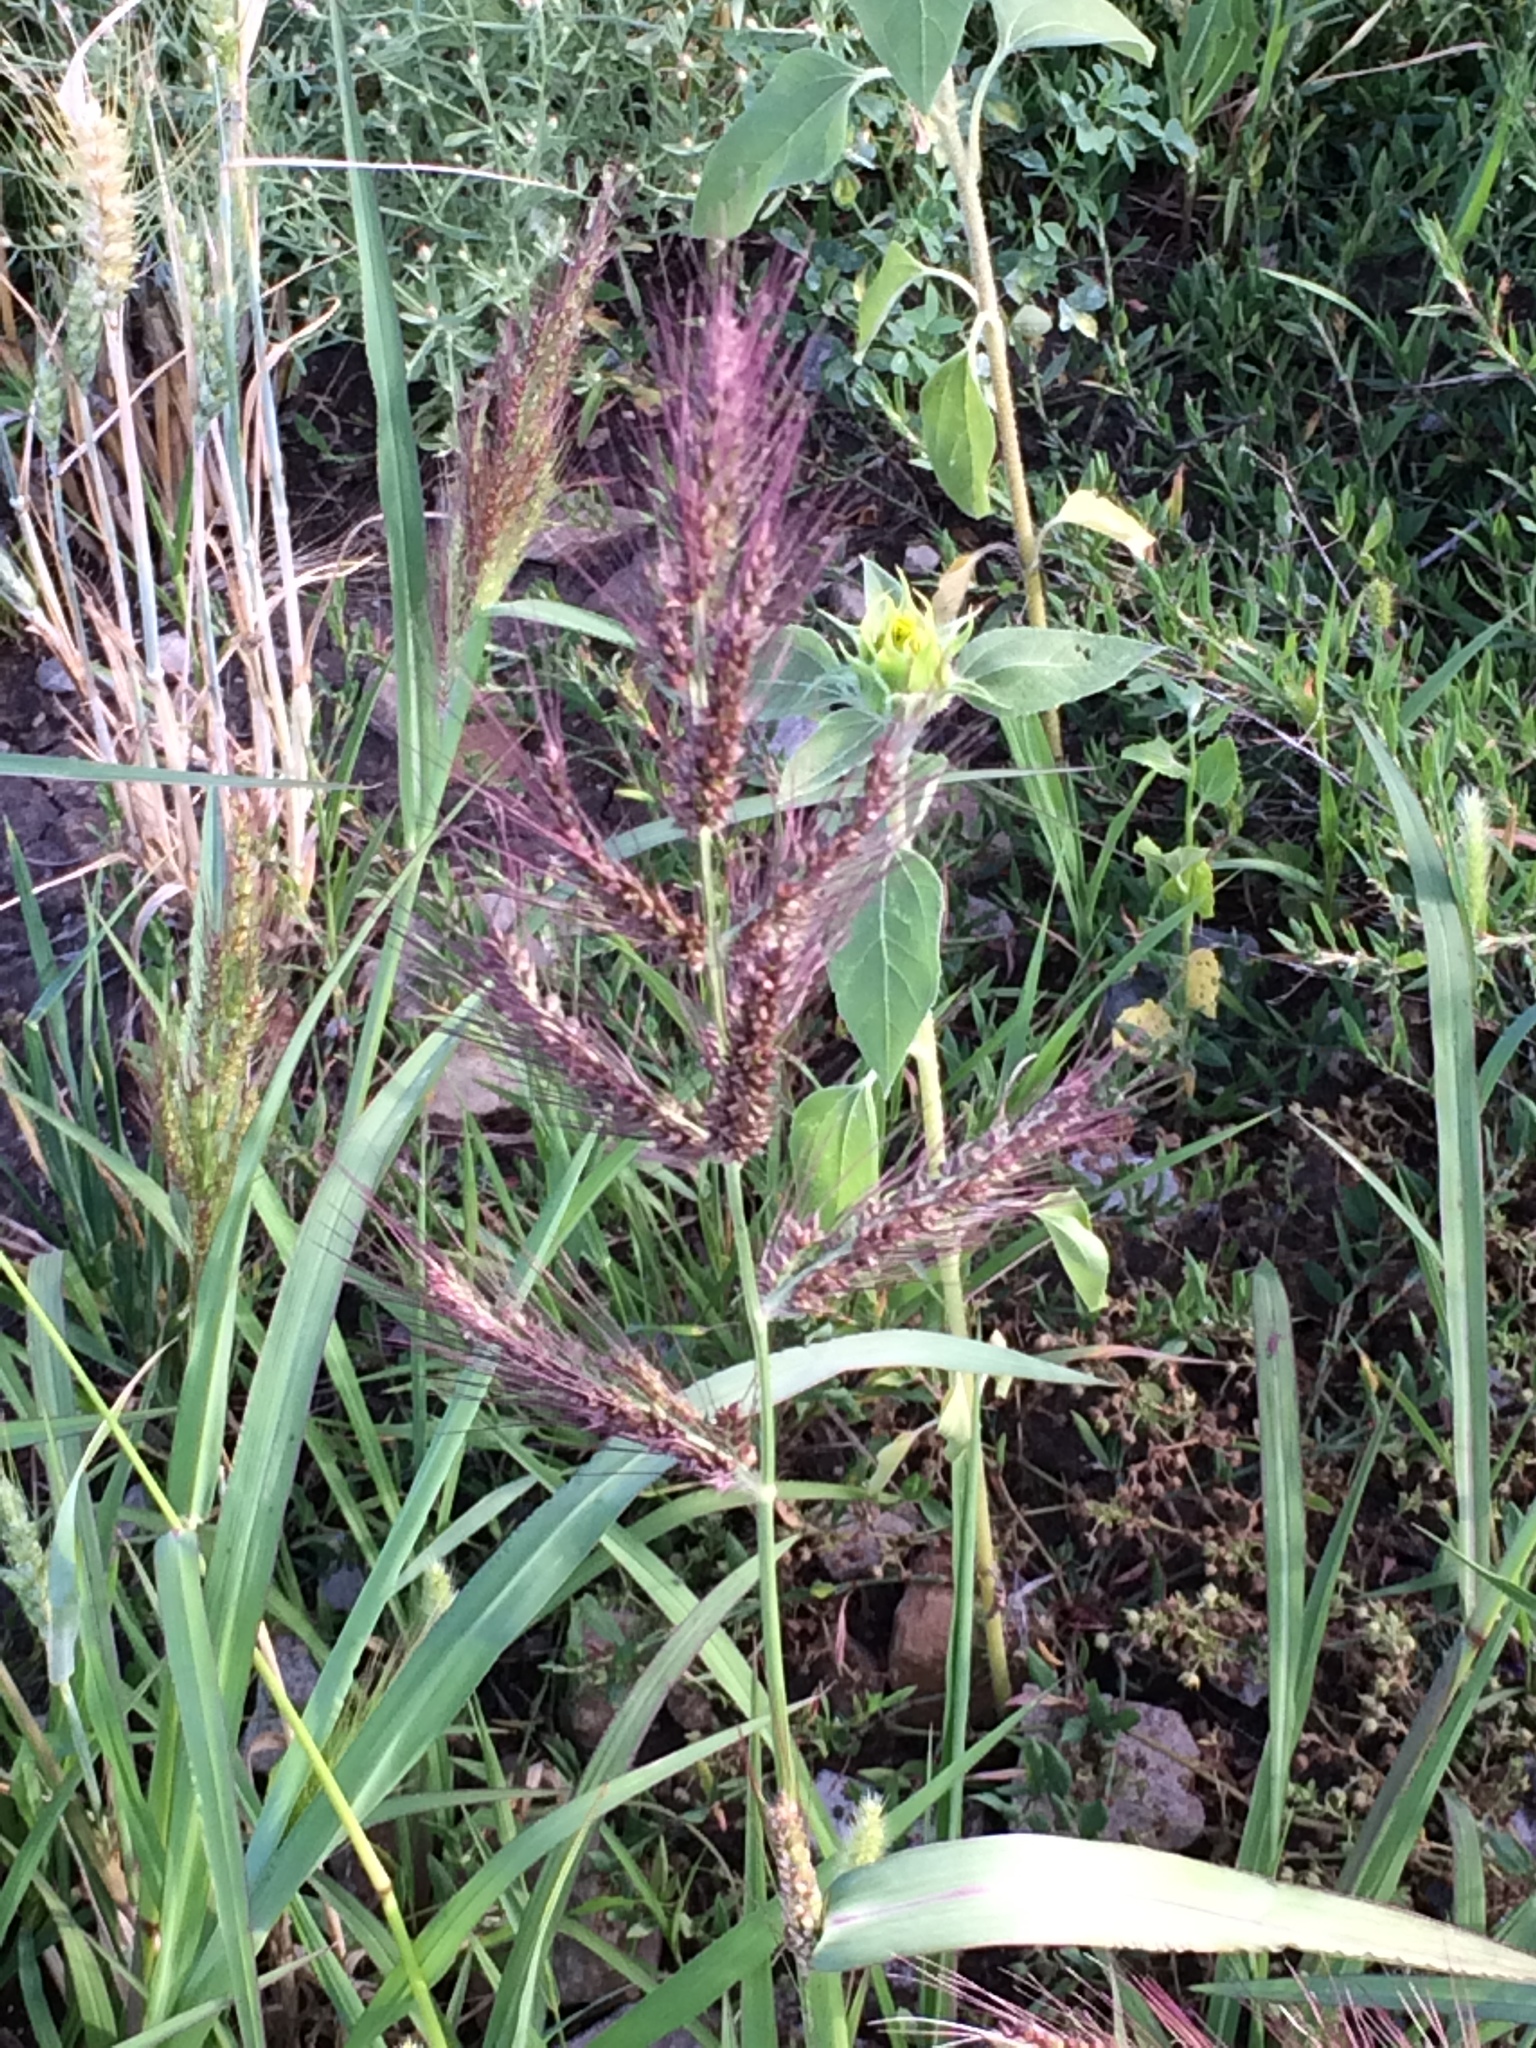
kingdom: Plantae
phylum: Tracheophyta
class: Liliopsida
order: Poales
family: Poaceae
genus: Echinochloa
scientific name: Echinochloa crus-galli
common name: Cockspur
